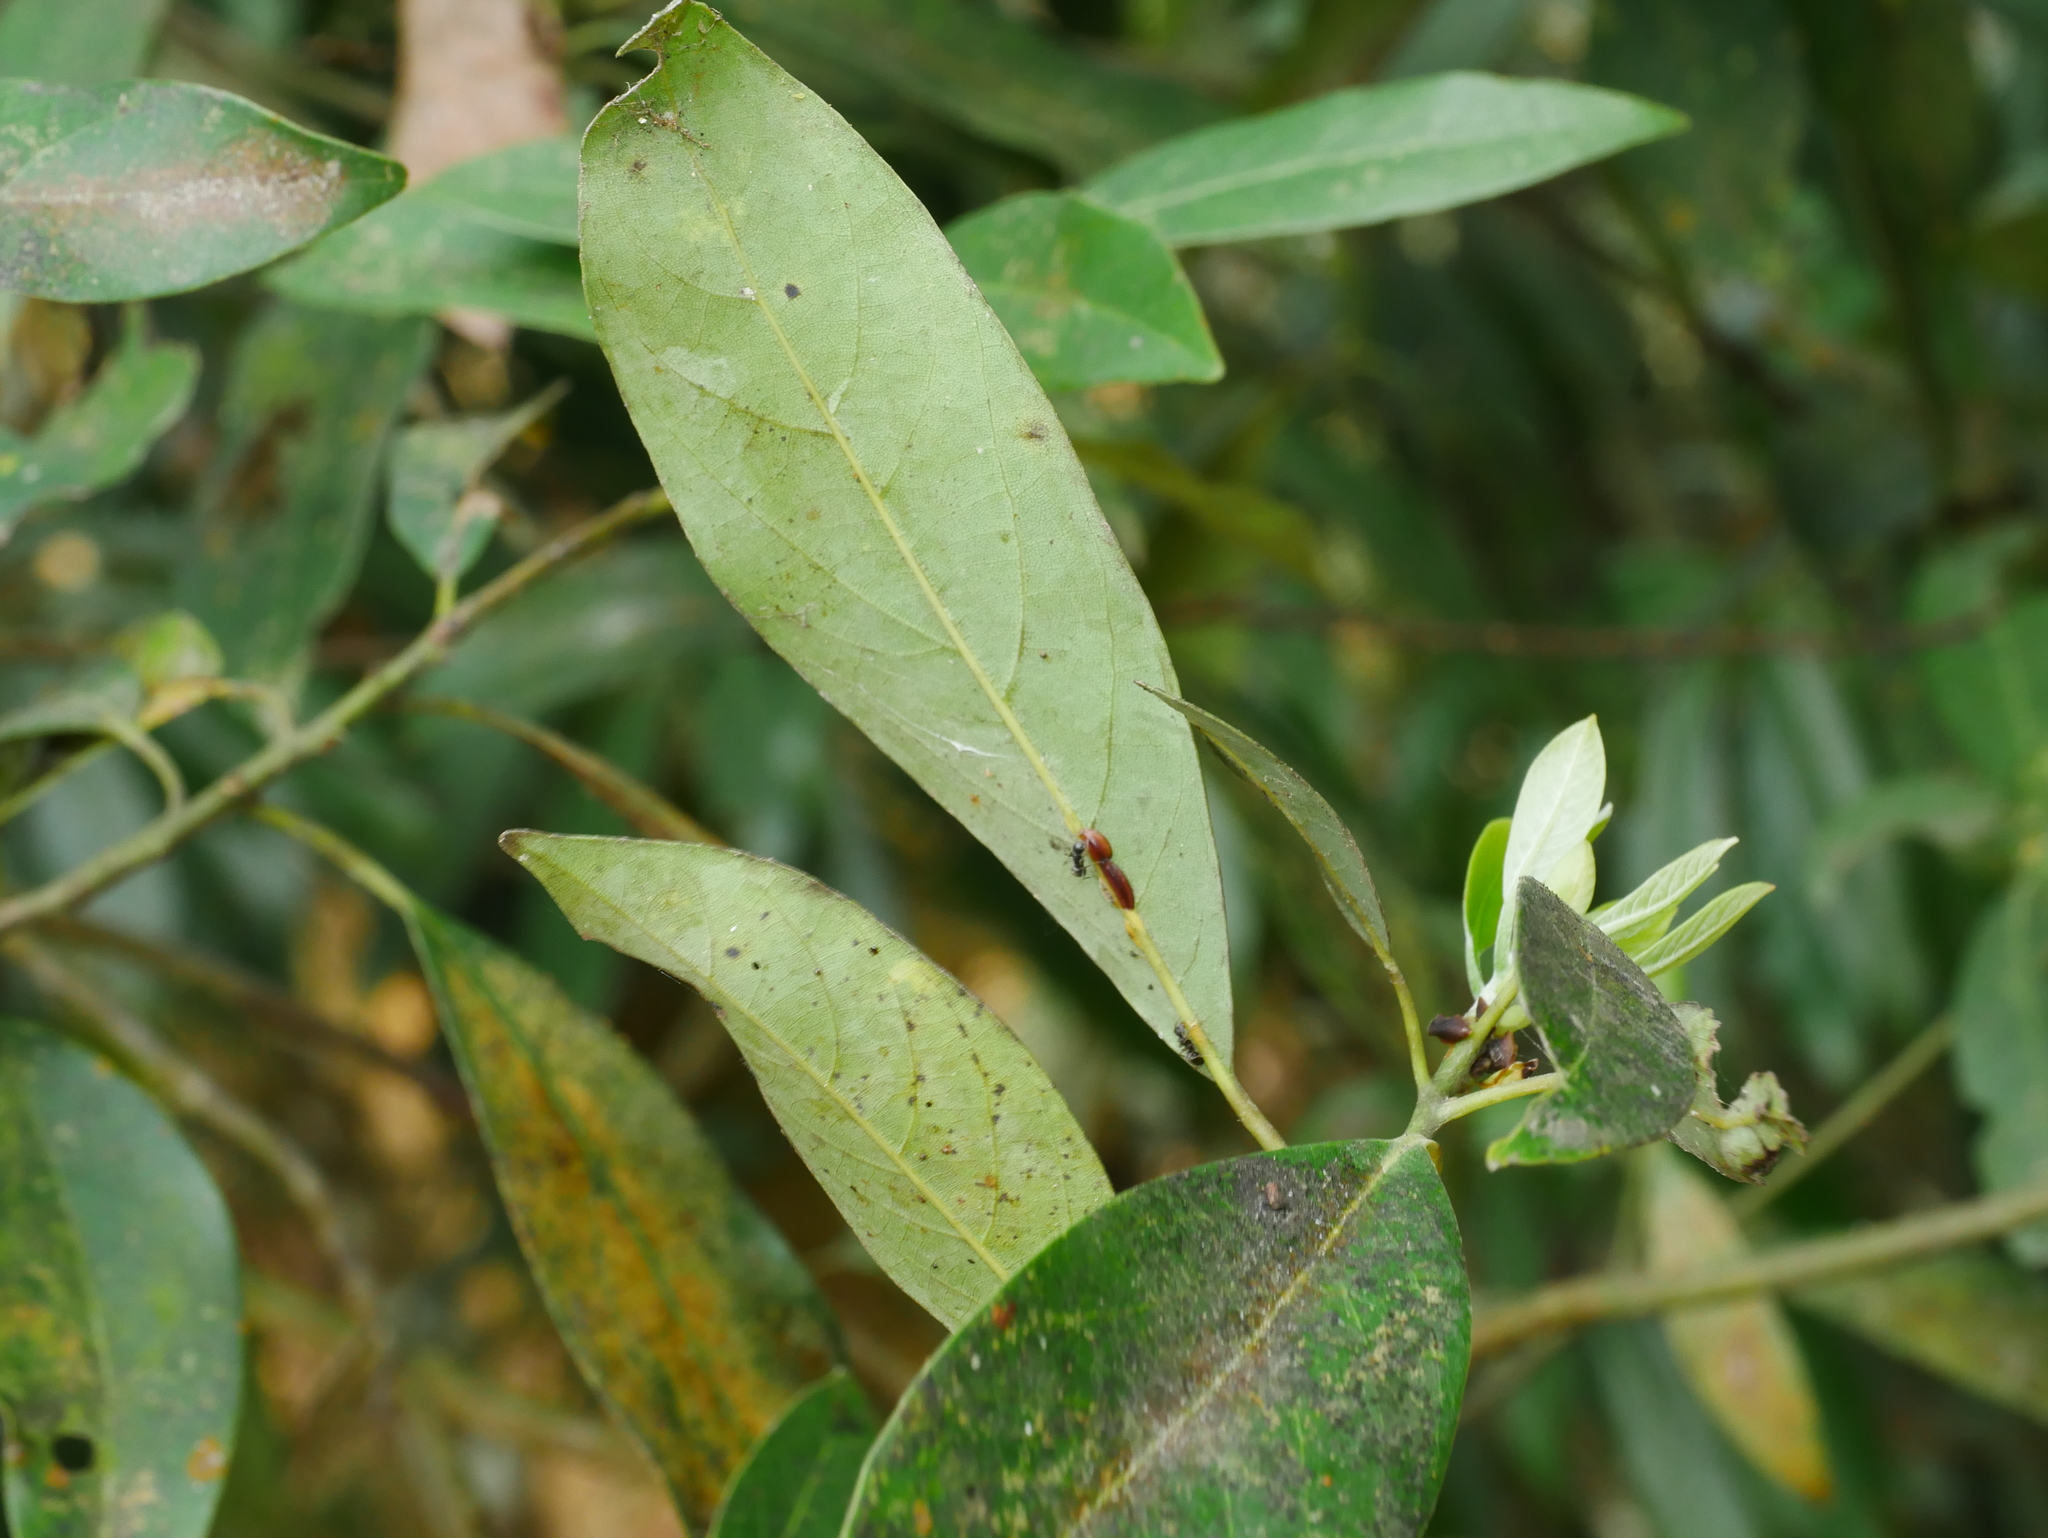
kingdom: Plantae
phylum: Tracheophyta
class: Magnoliopsida
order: Laurales
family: Lauraceae
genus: Machilus
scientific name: Machilus zuihoensis
